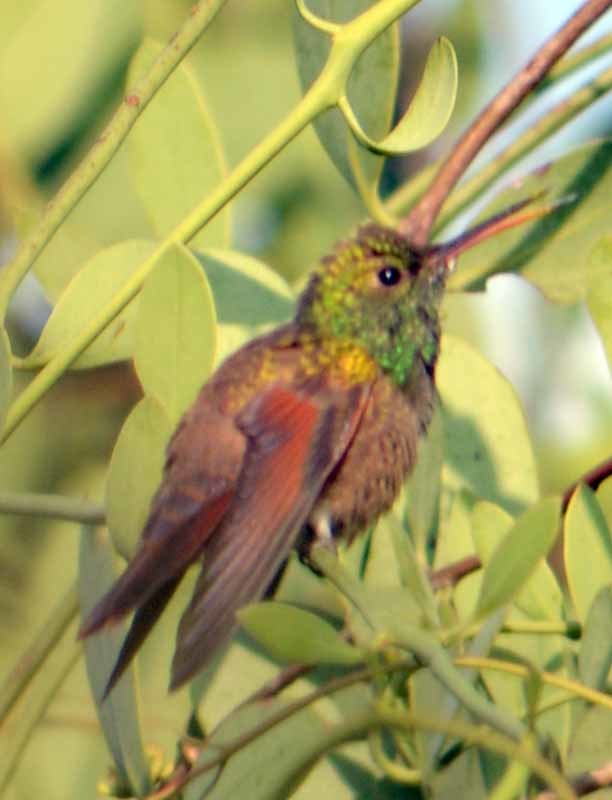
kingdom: Animalia
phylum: Chordata
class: Aves
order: Apodiformes
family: Trochilidae
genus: Saucerottia
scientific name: Saucerottia beryllina
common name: Berylline hummingbird
